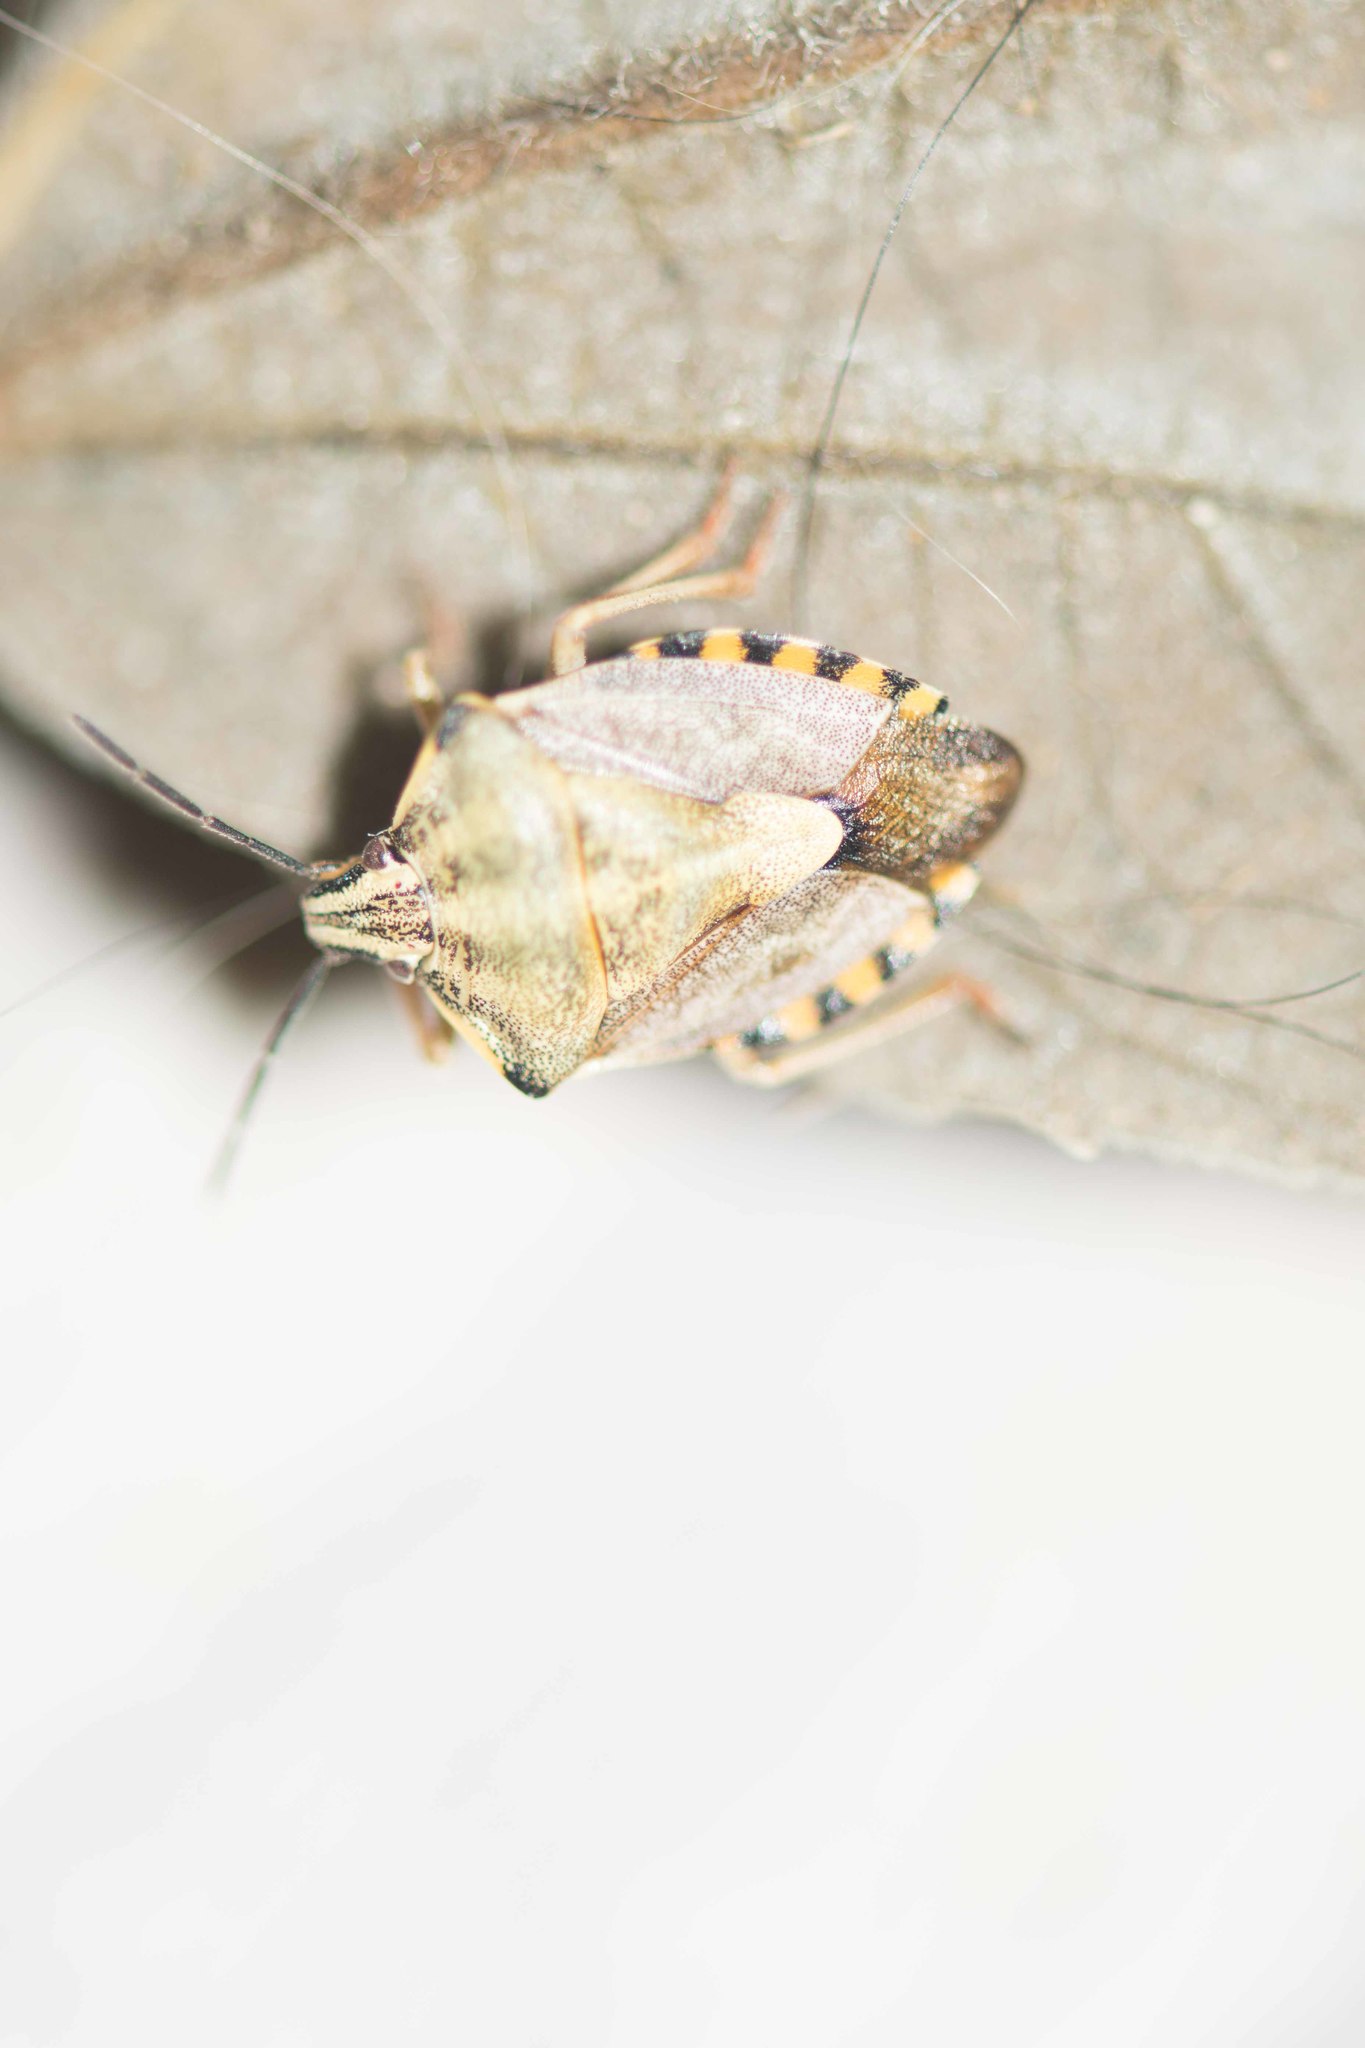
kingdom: Animalia
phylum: Arthropoda
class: Insecta
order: Hemiptera
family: Pentatomidae
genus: Carpocoris
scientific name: Carpocoris purpureipennis
